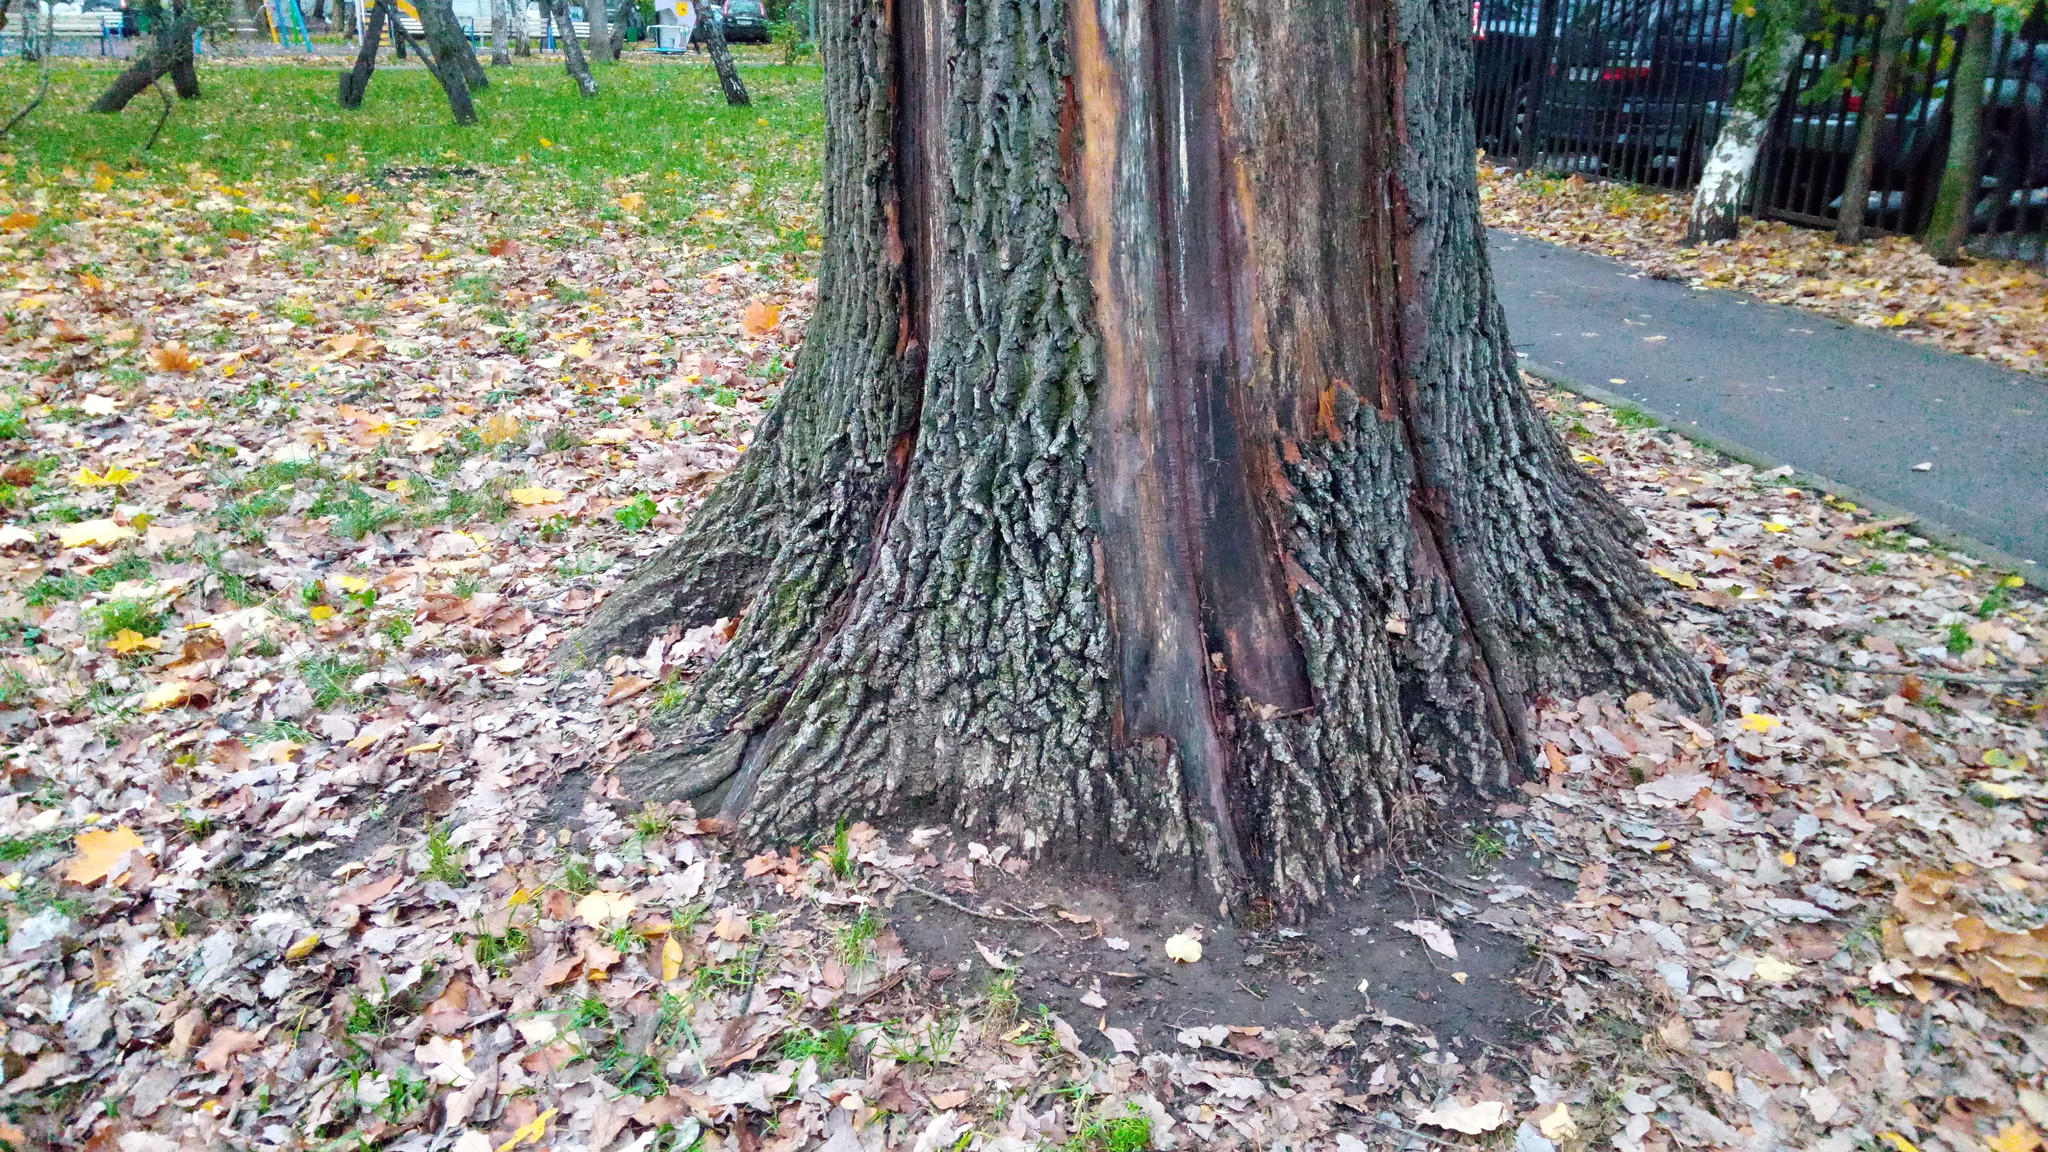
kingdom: Plantae
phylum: Tracheophyta
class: Magnoliopsida
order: Fagales
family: Fagaceae
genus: Quercus
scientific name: Quercus robur
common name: Pedunculate oak
